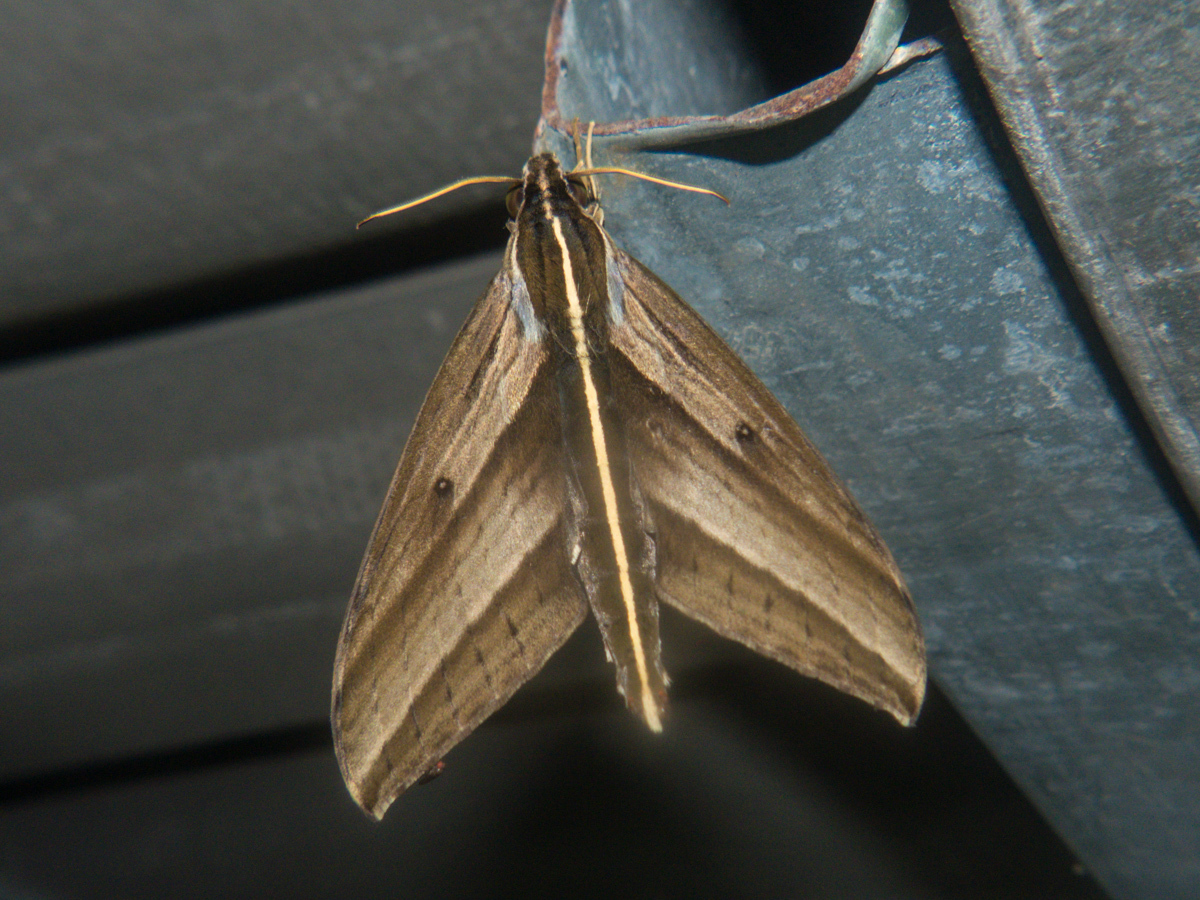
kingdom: Animalia
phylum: Arthropoda
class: Insecta
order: Lepidoptera
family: Sphingidae
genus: Elibia
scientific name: Elibia dolichus
